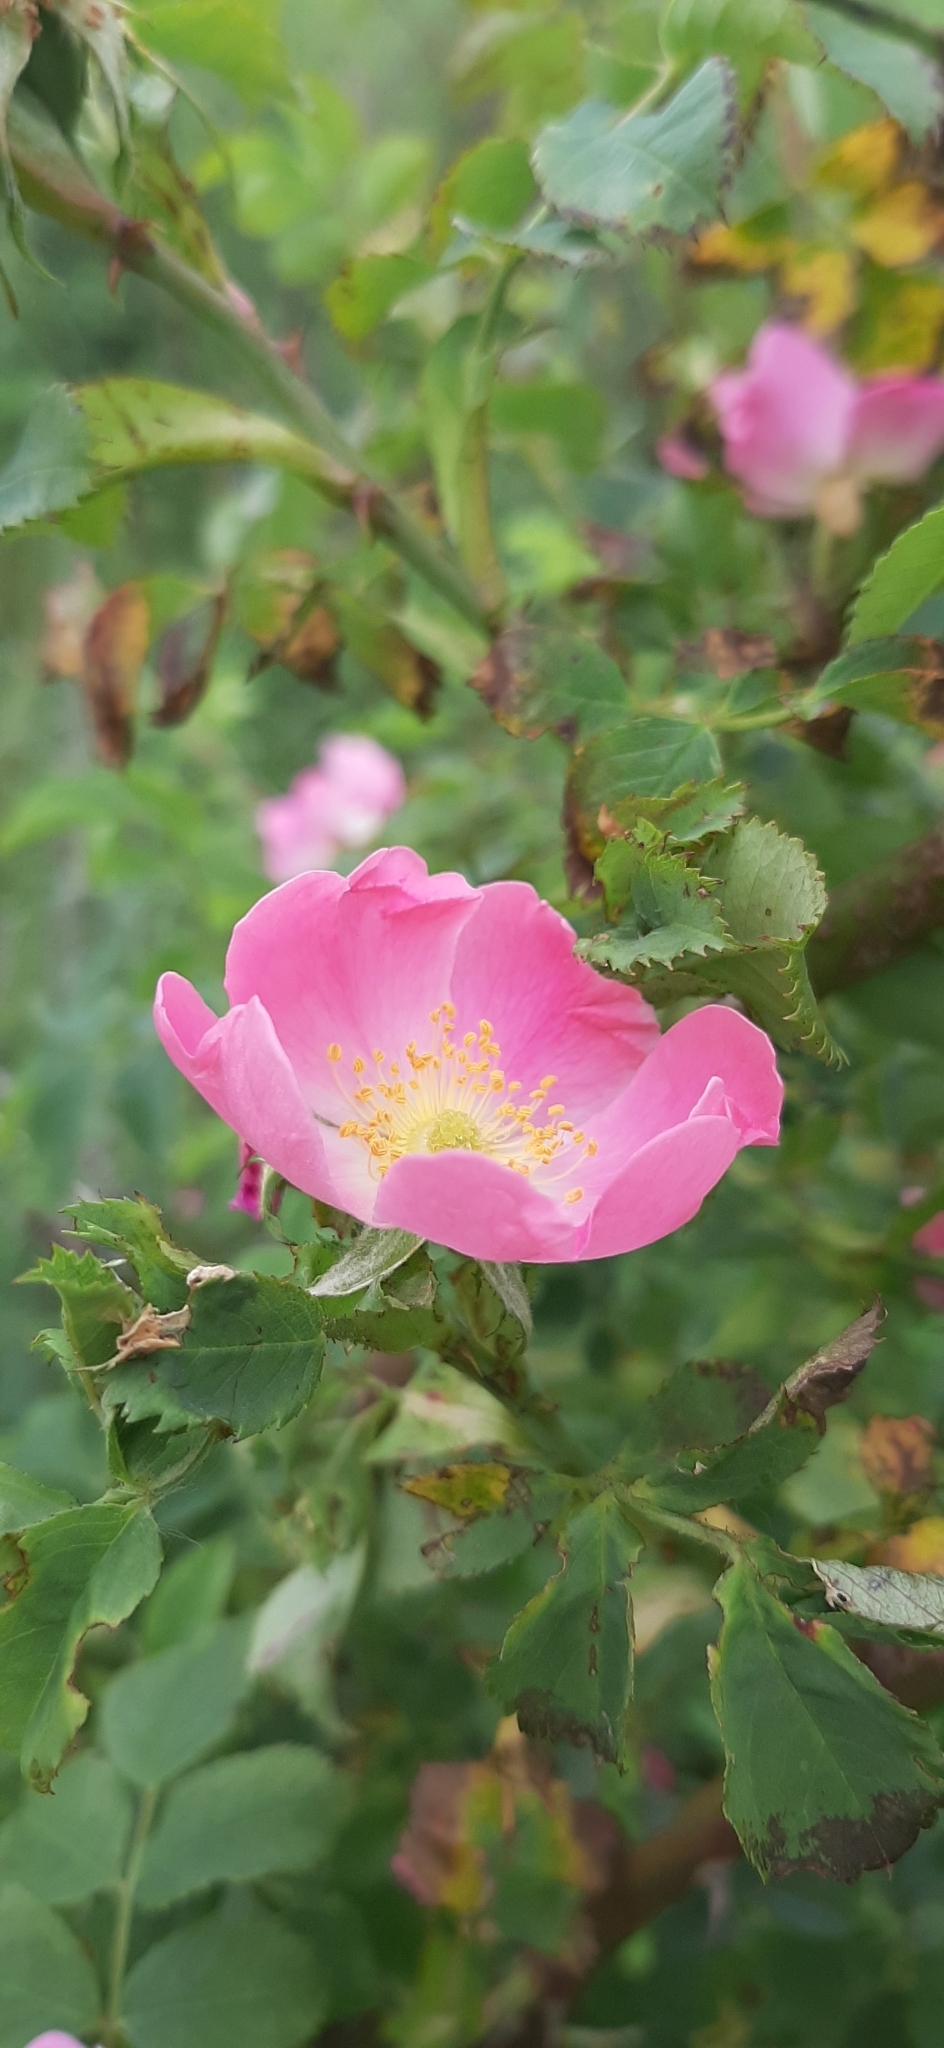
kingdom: Plantae
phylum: Tracheophyta
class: Magnoliopsida
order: Rosales
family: Rosaceae
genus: Rosa
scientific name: Rosa canina
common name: Dog rose
